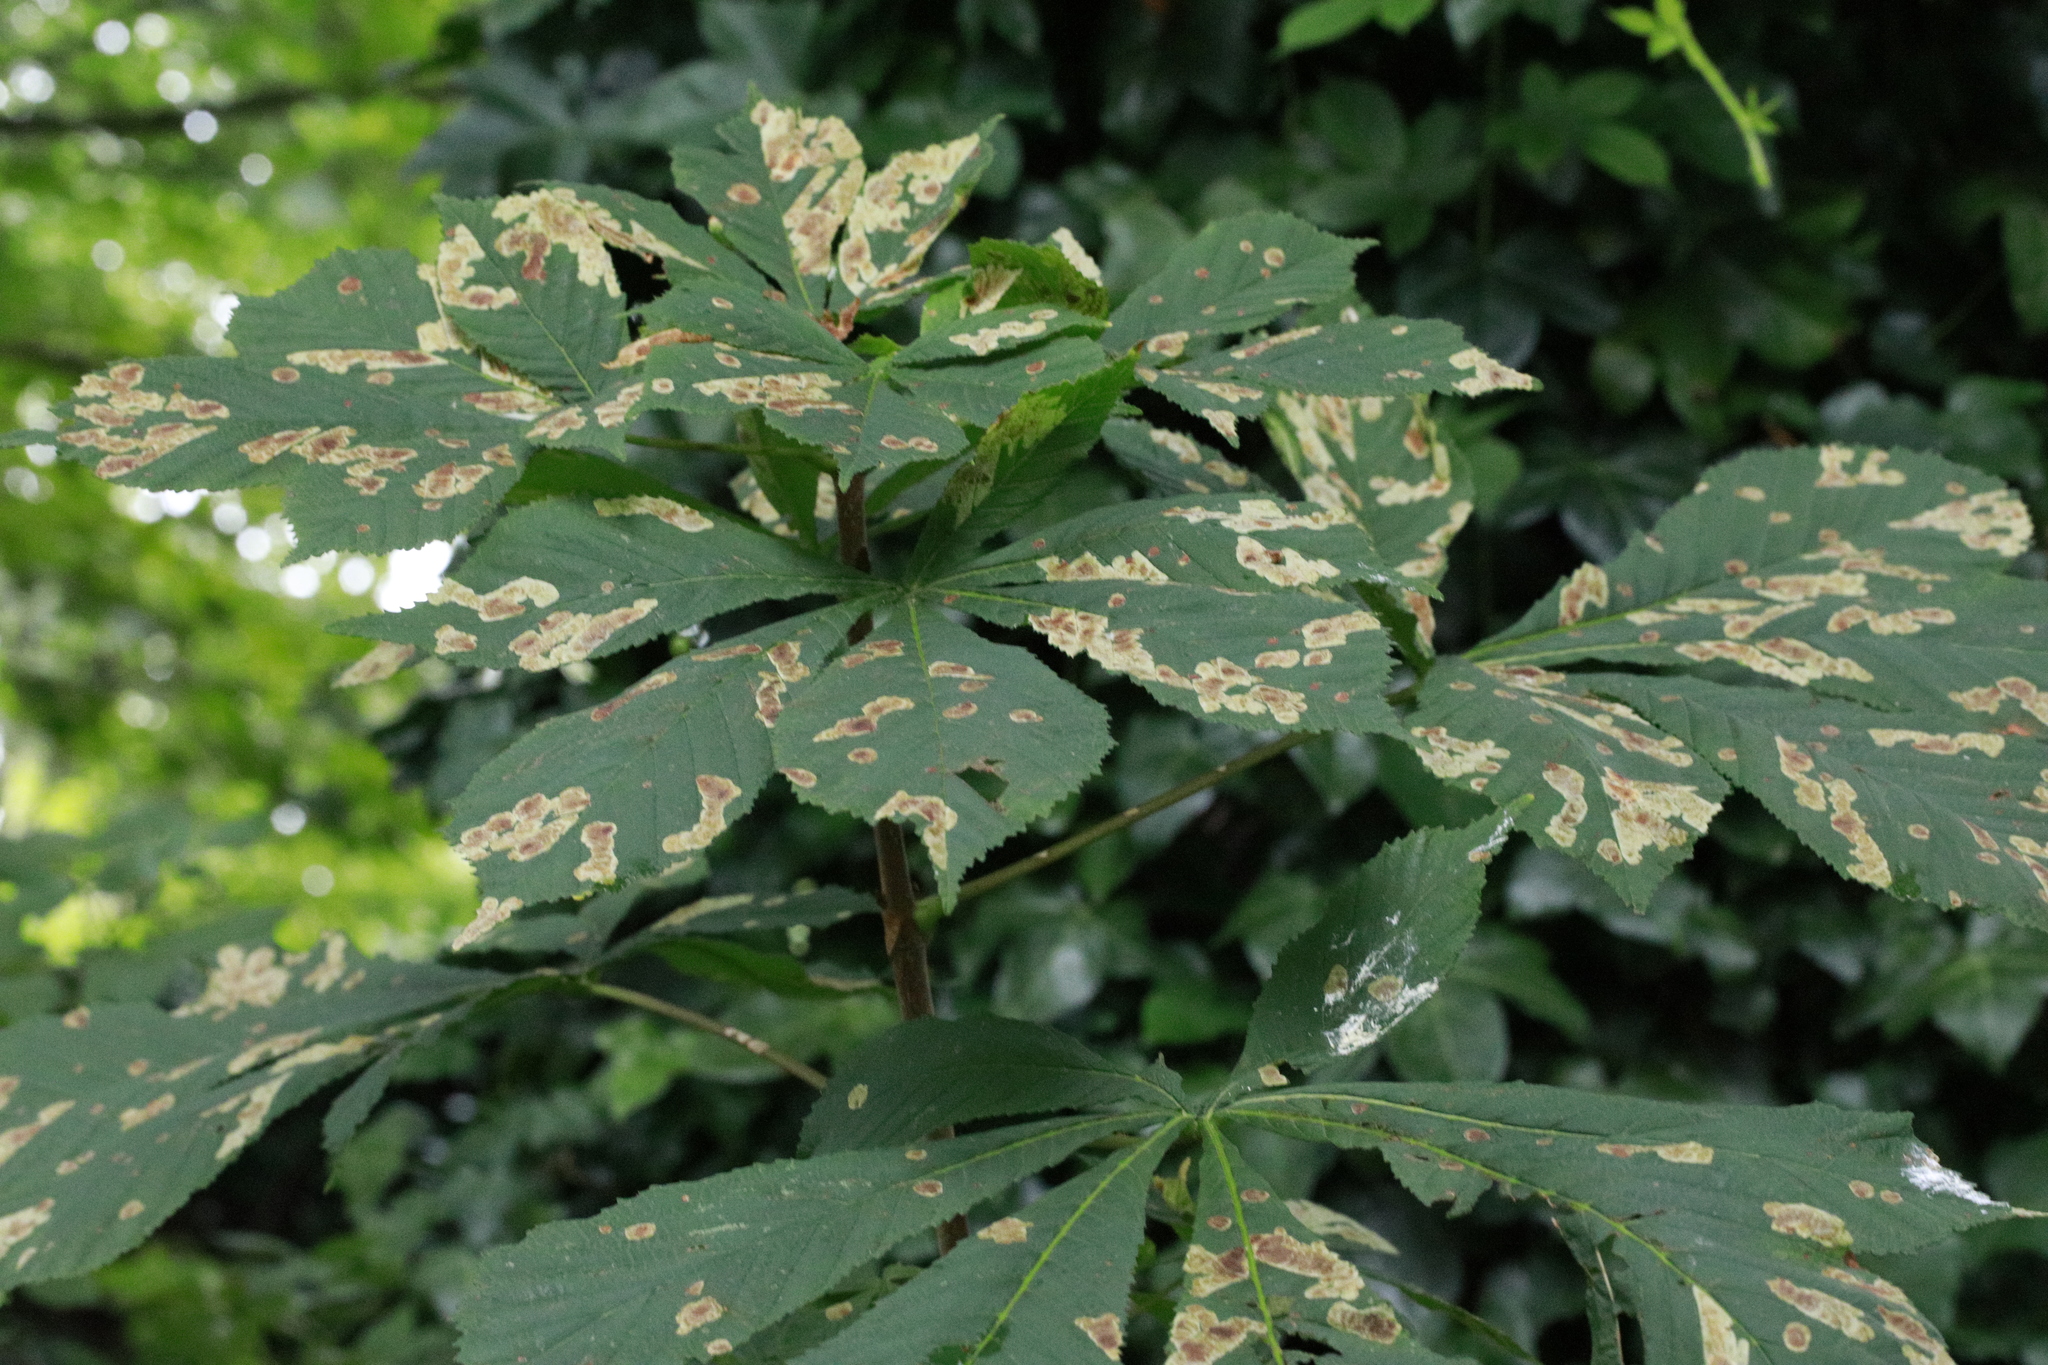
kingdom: Plantae
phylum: Tracheophyta
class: Magnoliopsida
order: Sapindales
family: Sapindaceae
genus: Aesculus
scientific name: Aesculus hippocastanum
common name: Horse-chestnut
